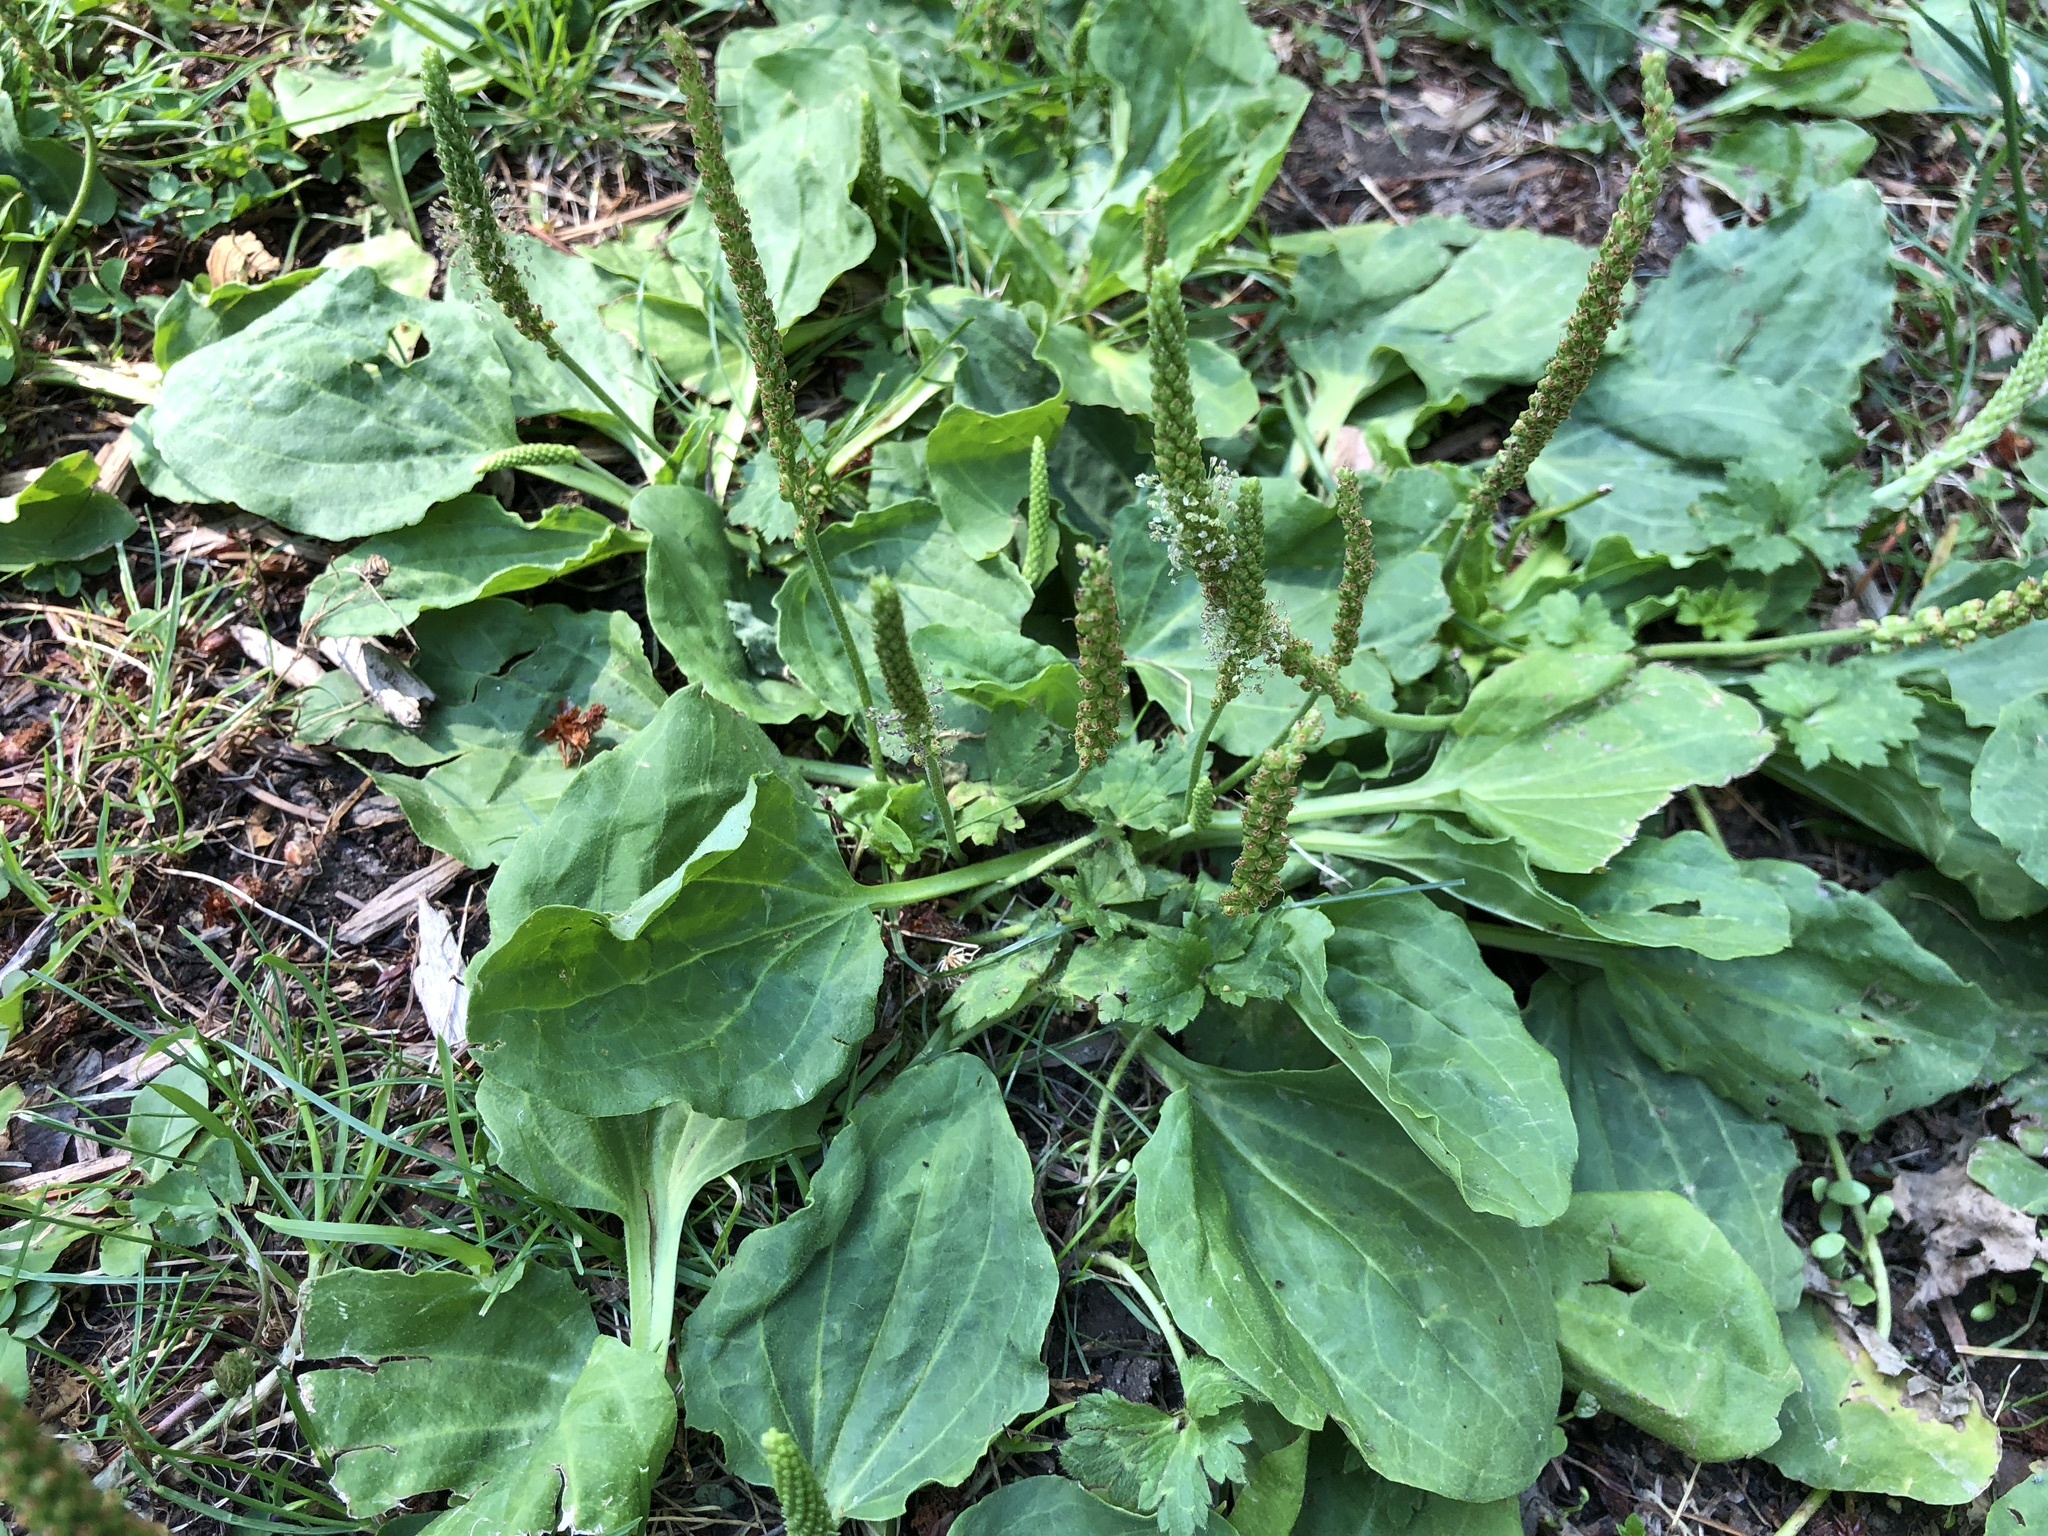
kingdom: Plantae
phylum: Tracheophyta
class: Magnoliopsida
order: Lamiales
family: Plantaginaceae
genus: Plantago
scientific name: Plantago major
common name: Common plantain
